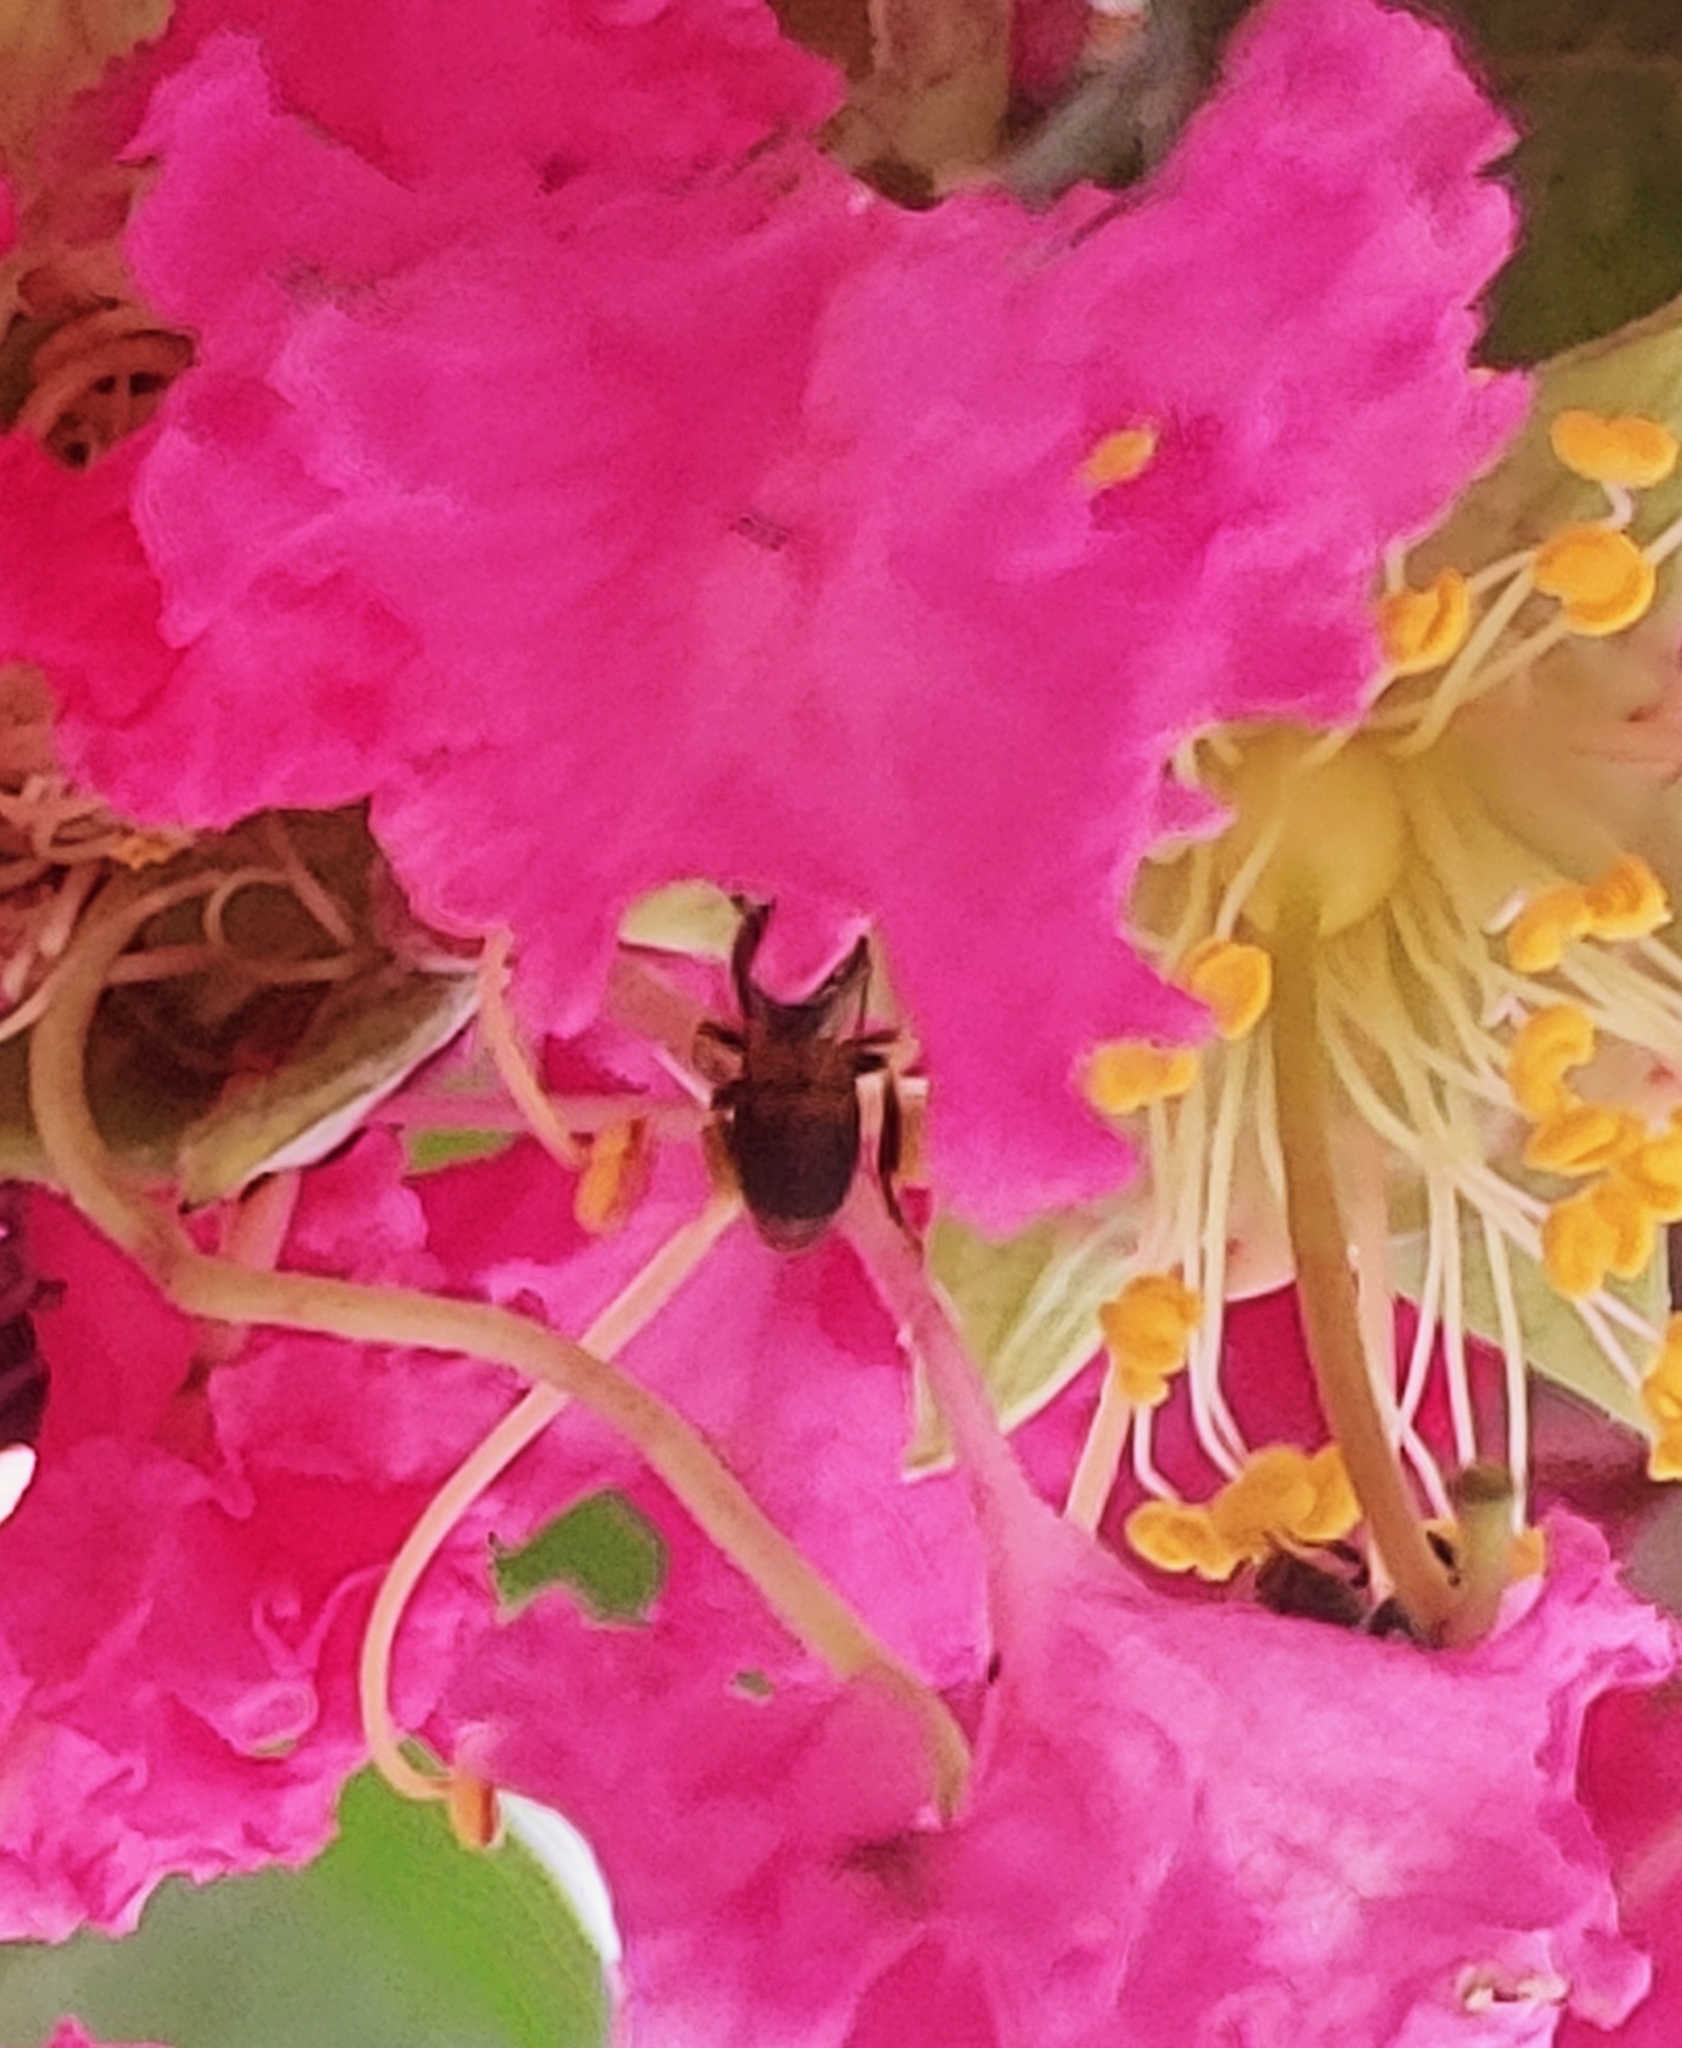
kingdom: Animalia
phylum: Arthropoda
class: Insecta
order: Hymenoptera
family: Apidae
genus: Nannotrigona
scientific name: Nannotrigona testaceicornis
